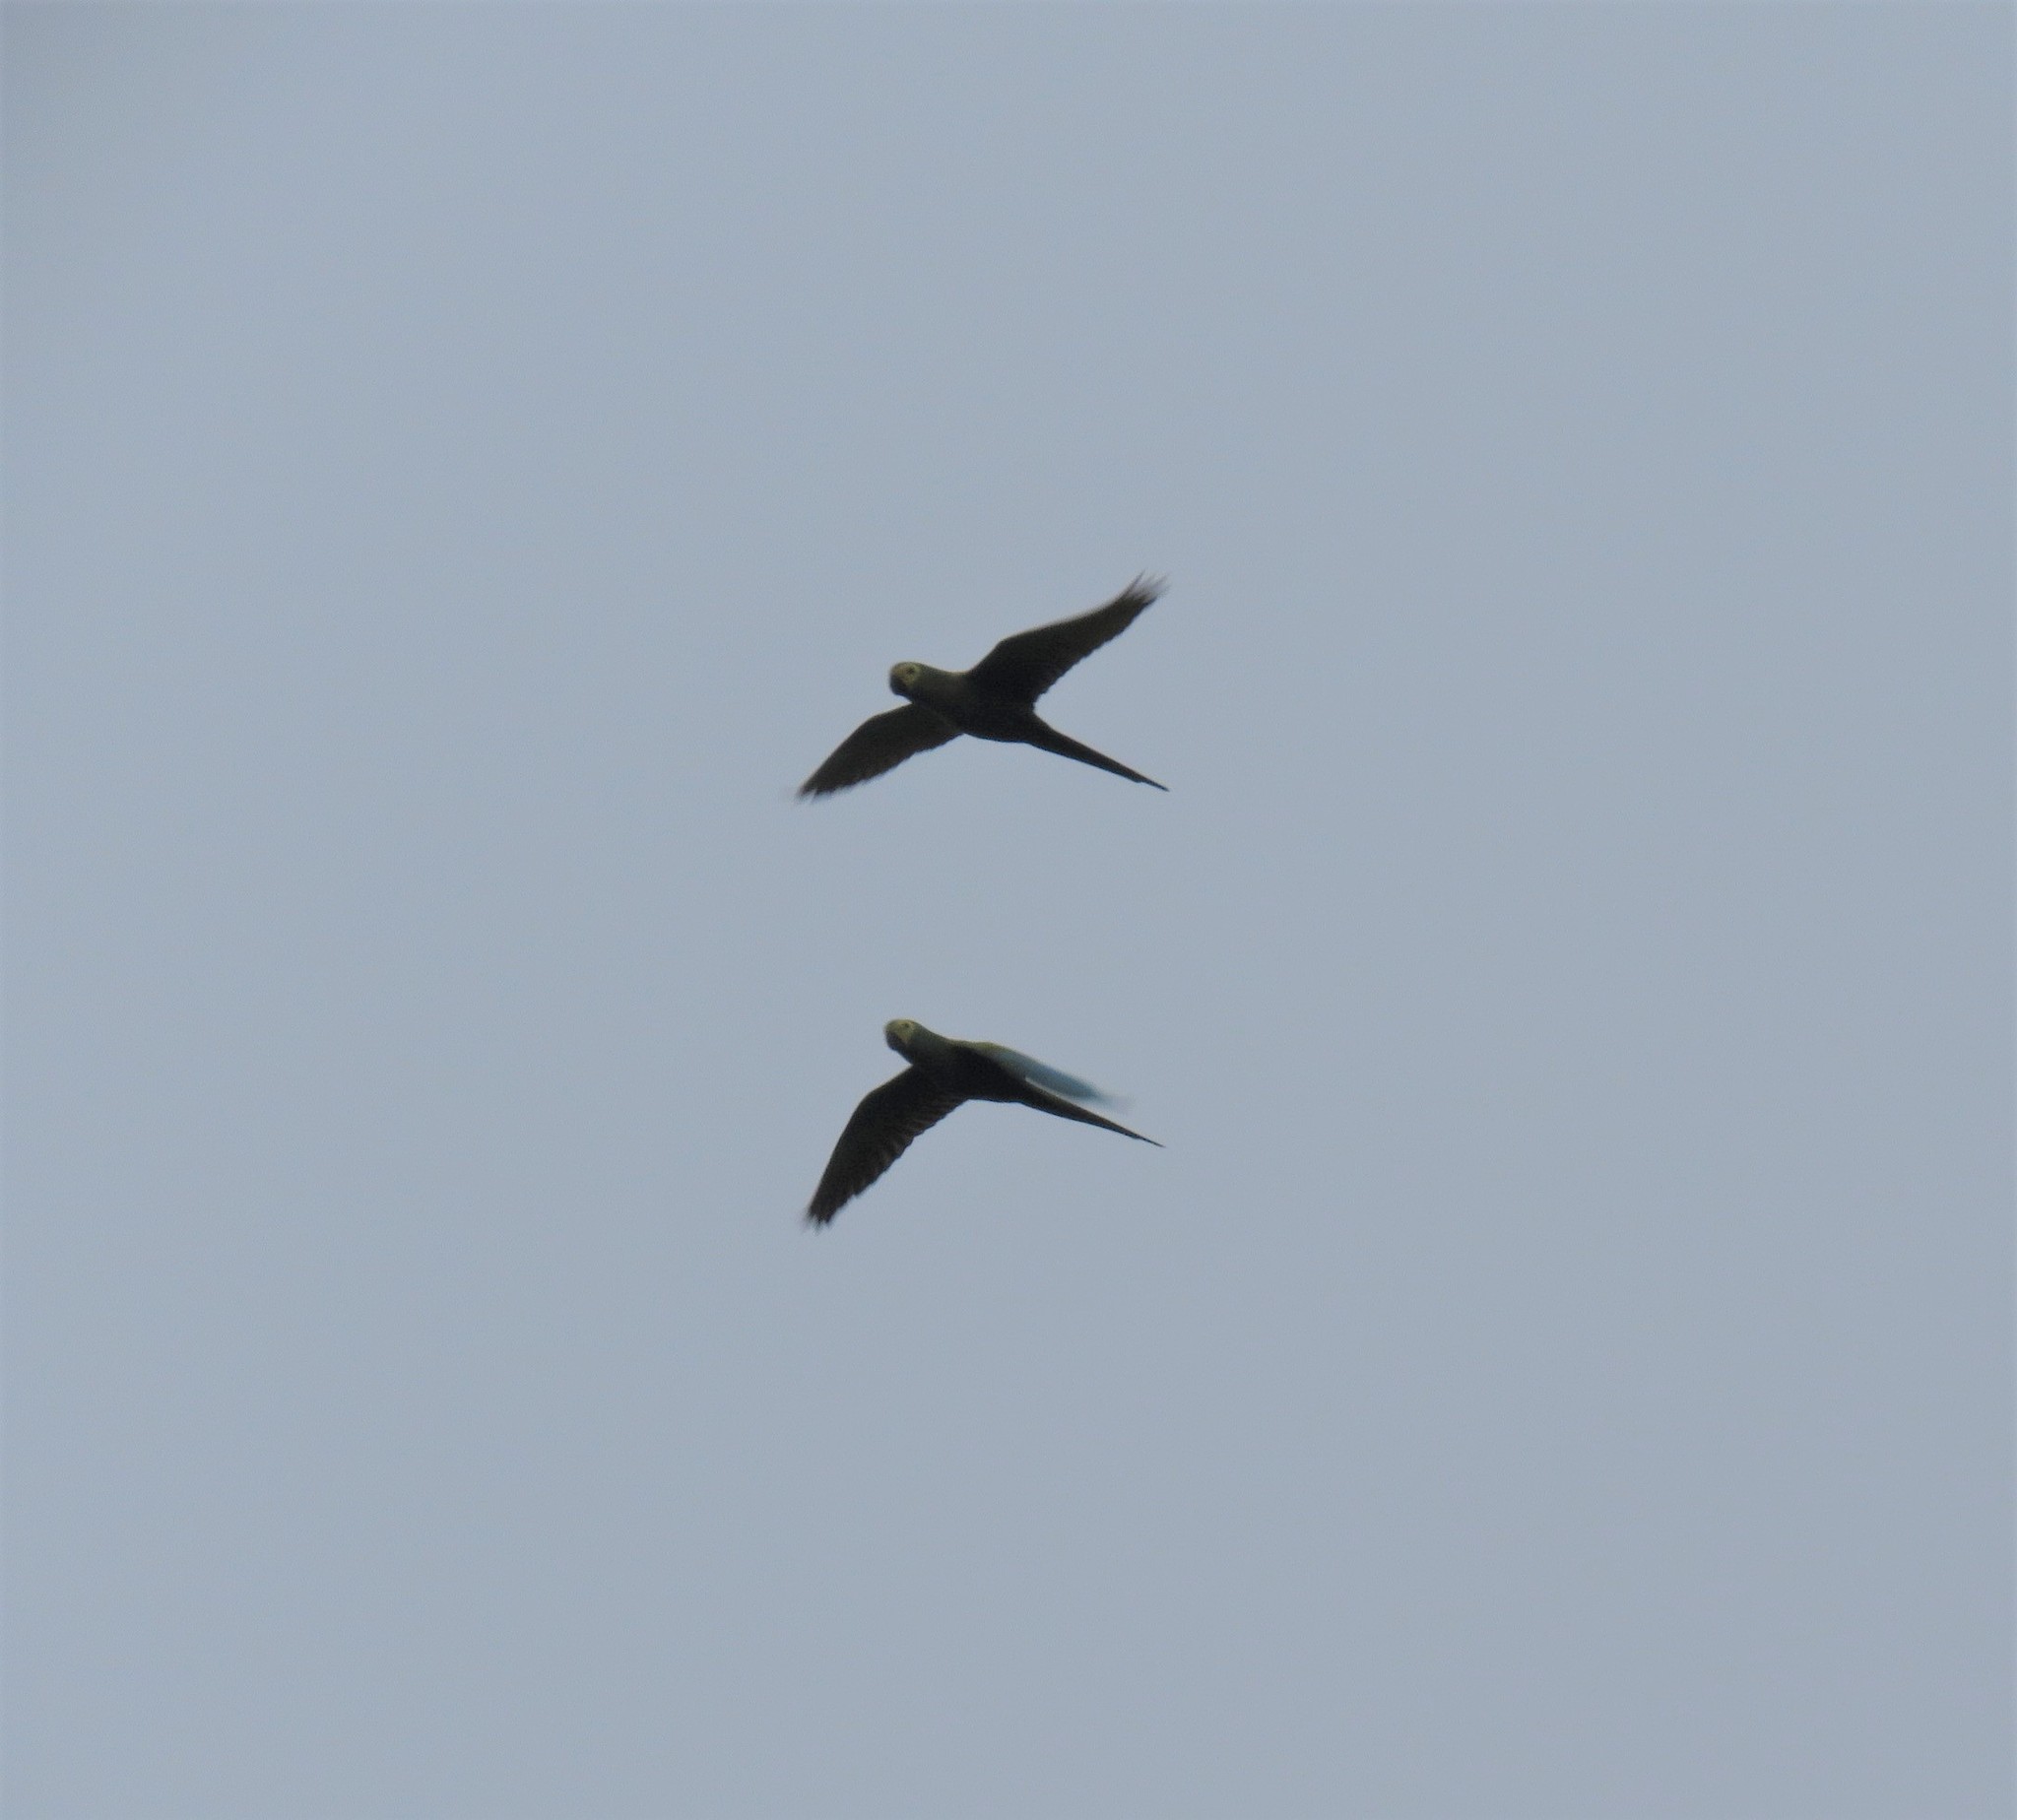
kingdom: Animalia
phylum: Chordata
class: Aves
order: Psittaciformes
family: Psittacidae
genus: Orthopsittaca
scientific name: Orthopsittaca manilata
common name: Red-bellied macaw
